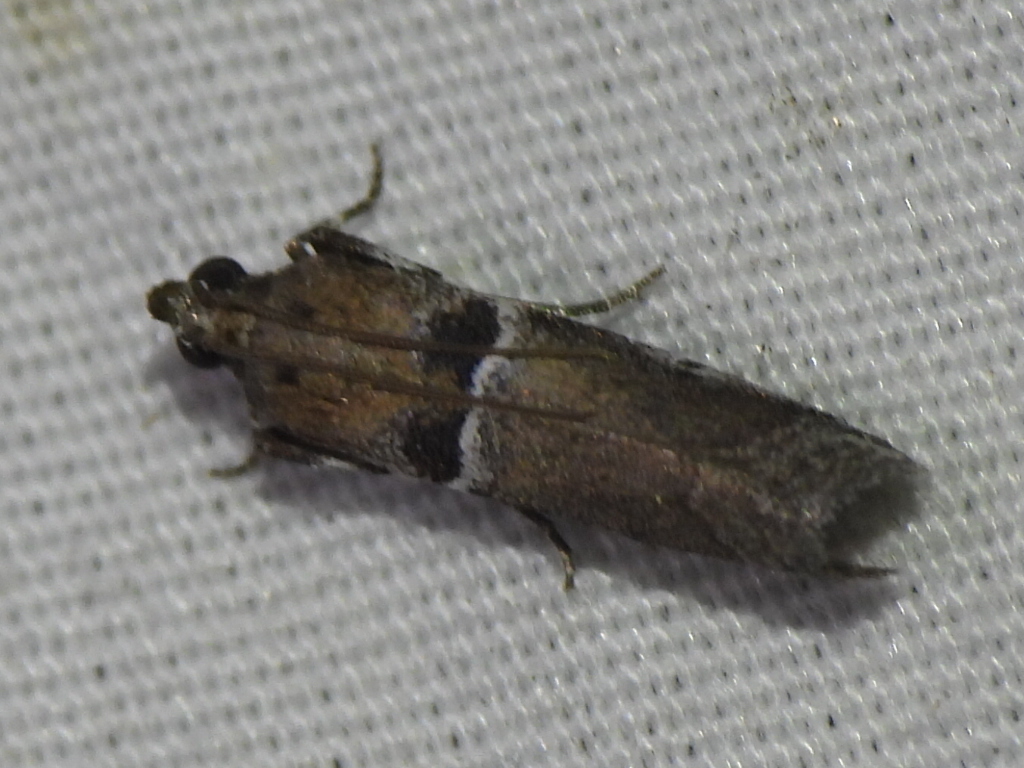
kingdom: Animalia
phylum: Arthropoda
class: Insecta
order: Lepidoptera
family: Pyralidae
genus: Quasisalebria
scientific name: Quasisalebria admixta
